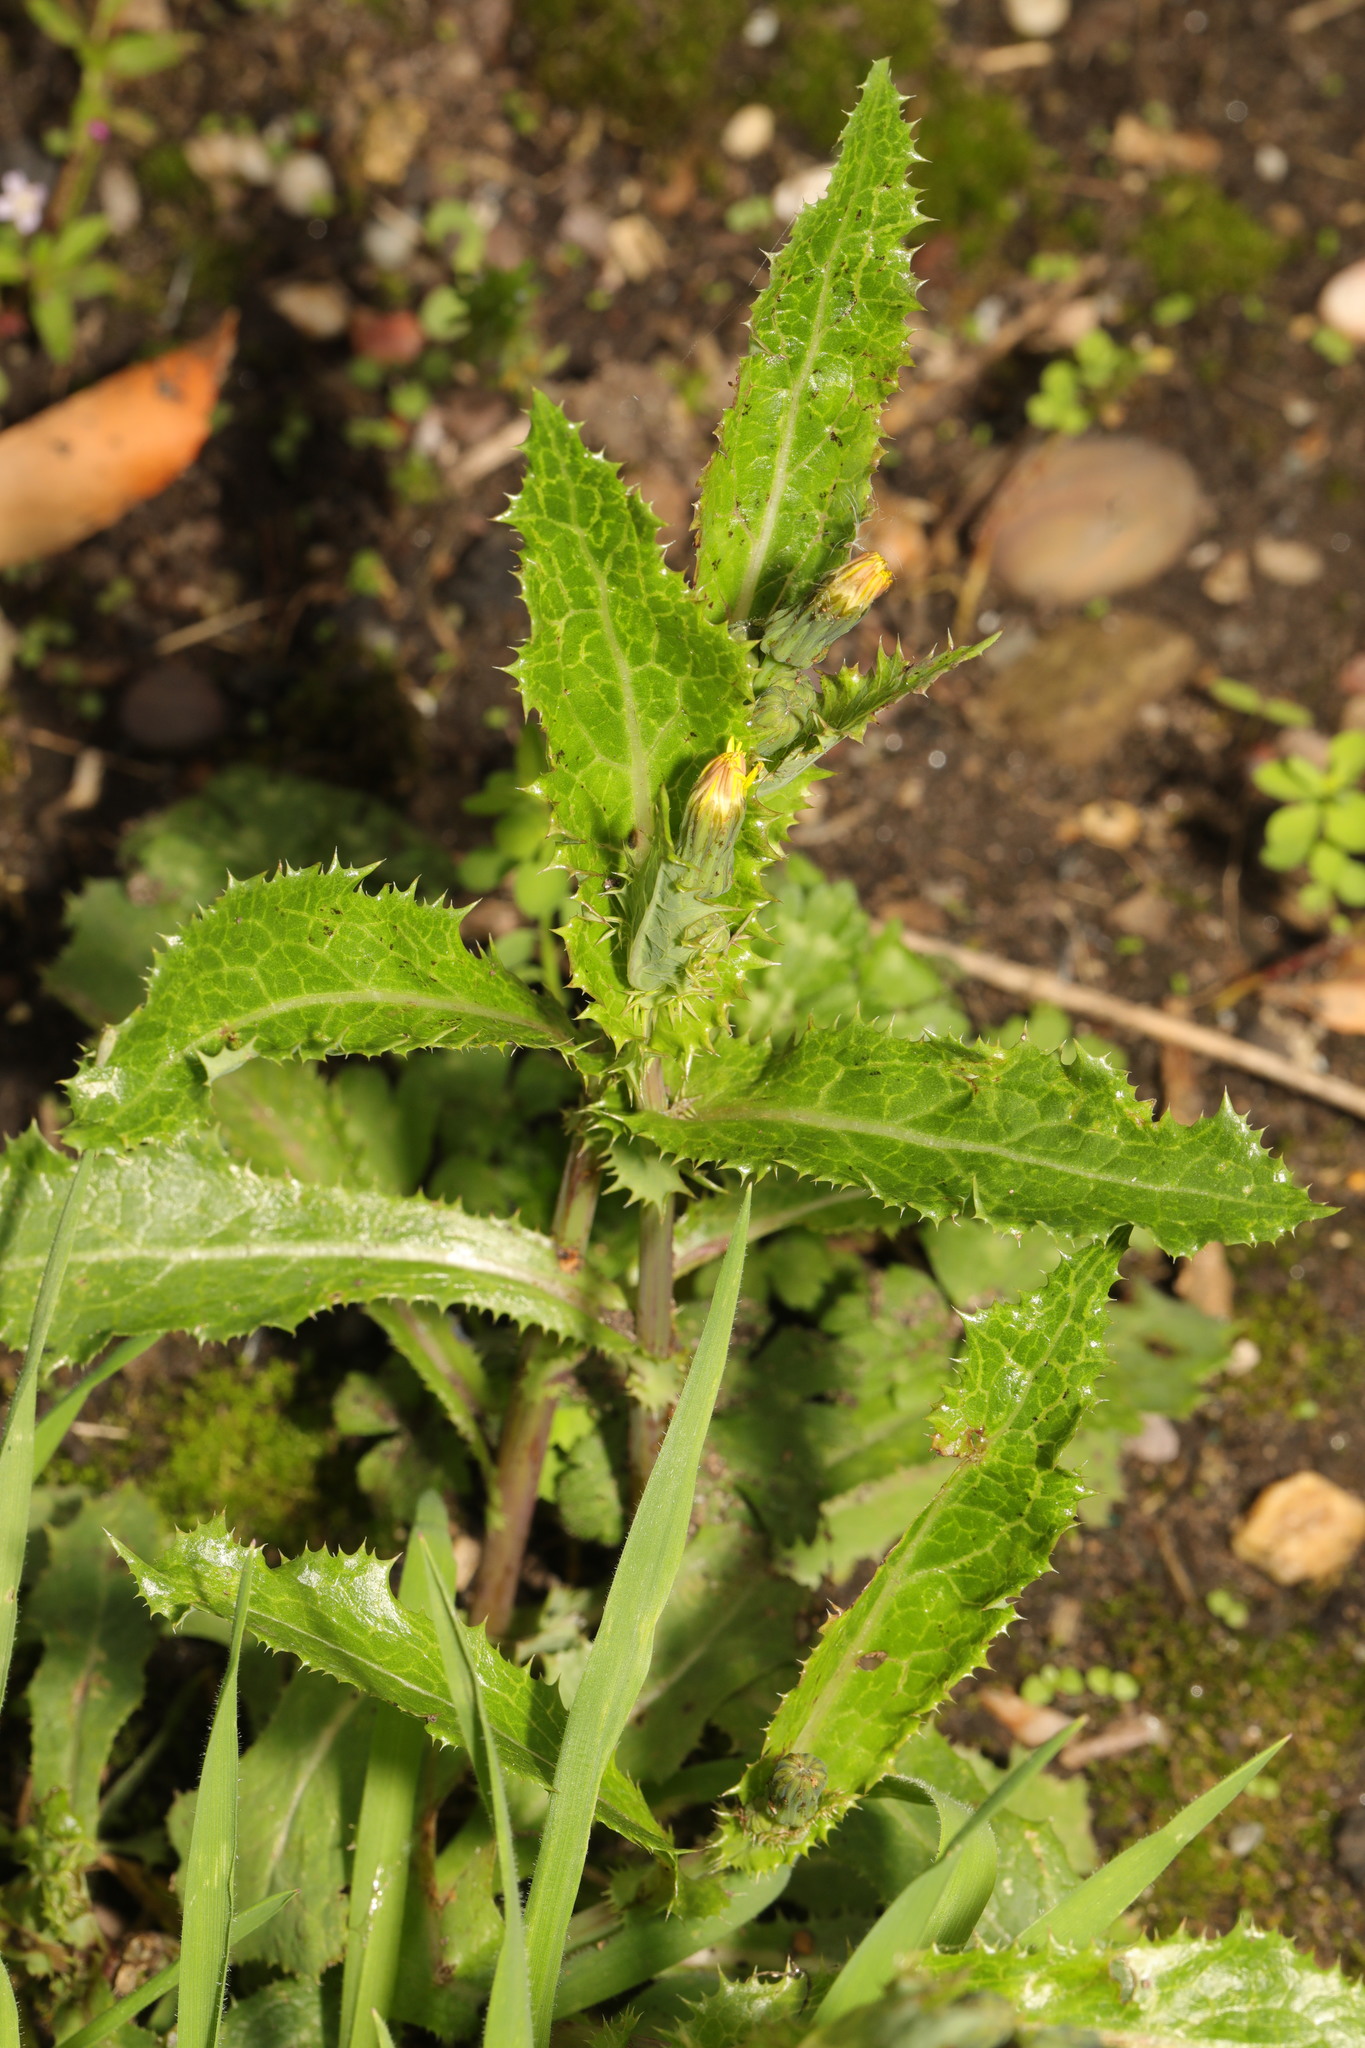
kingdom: Plantae
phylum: Tracheophyta
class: Magnoliopsida
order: Asterales
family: Asteraceae
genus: Sonchus
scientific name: Sonchus asper
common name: Prickly sow-thistle
